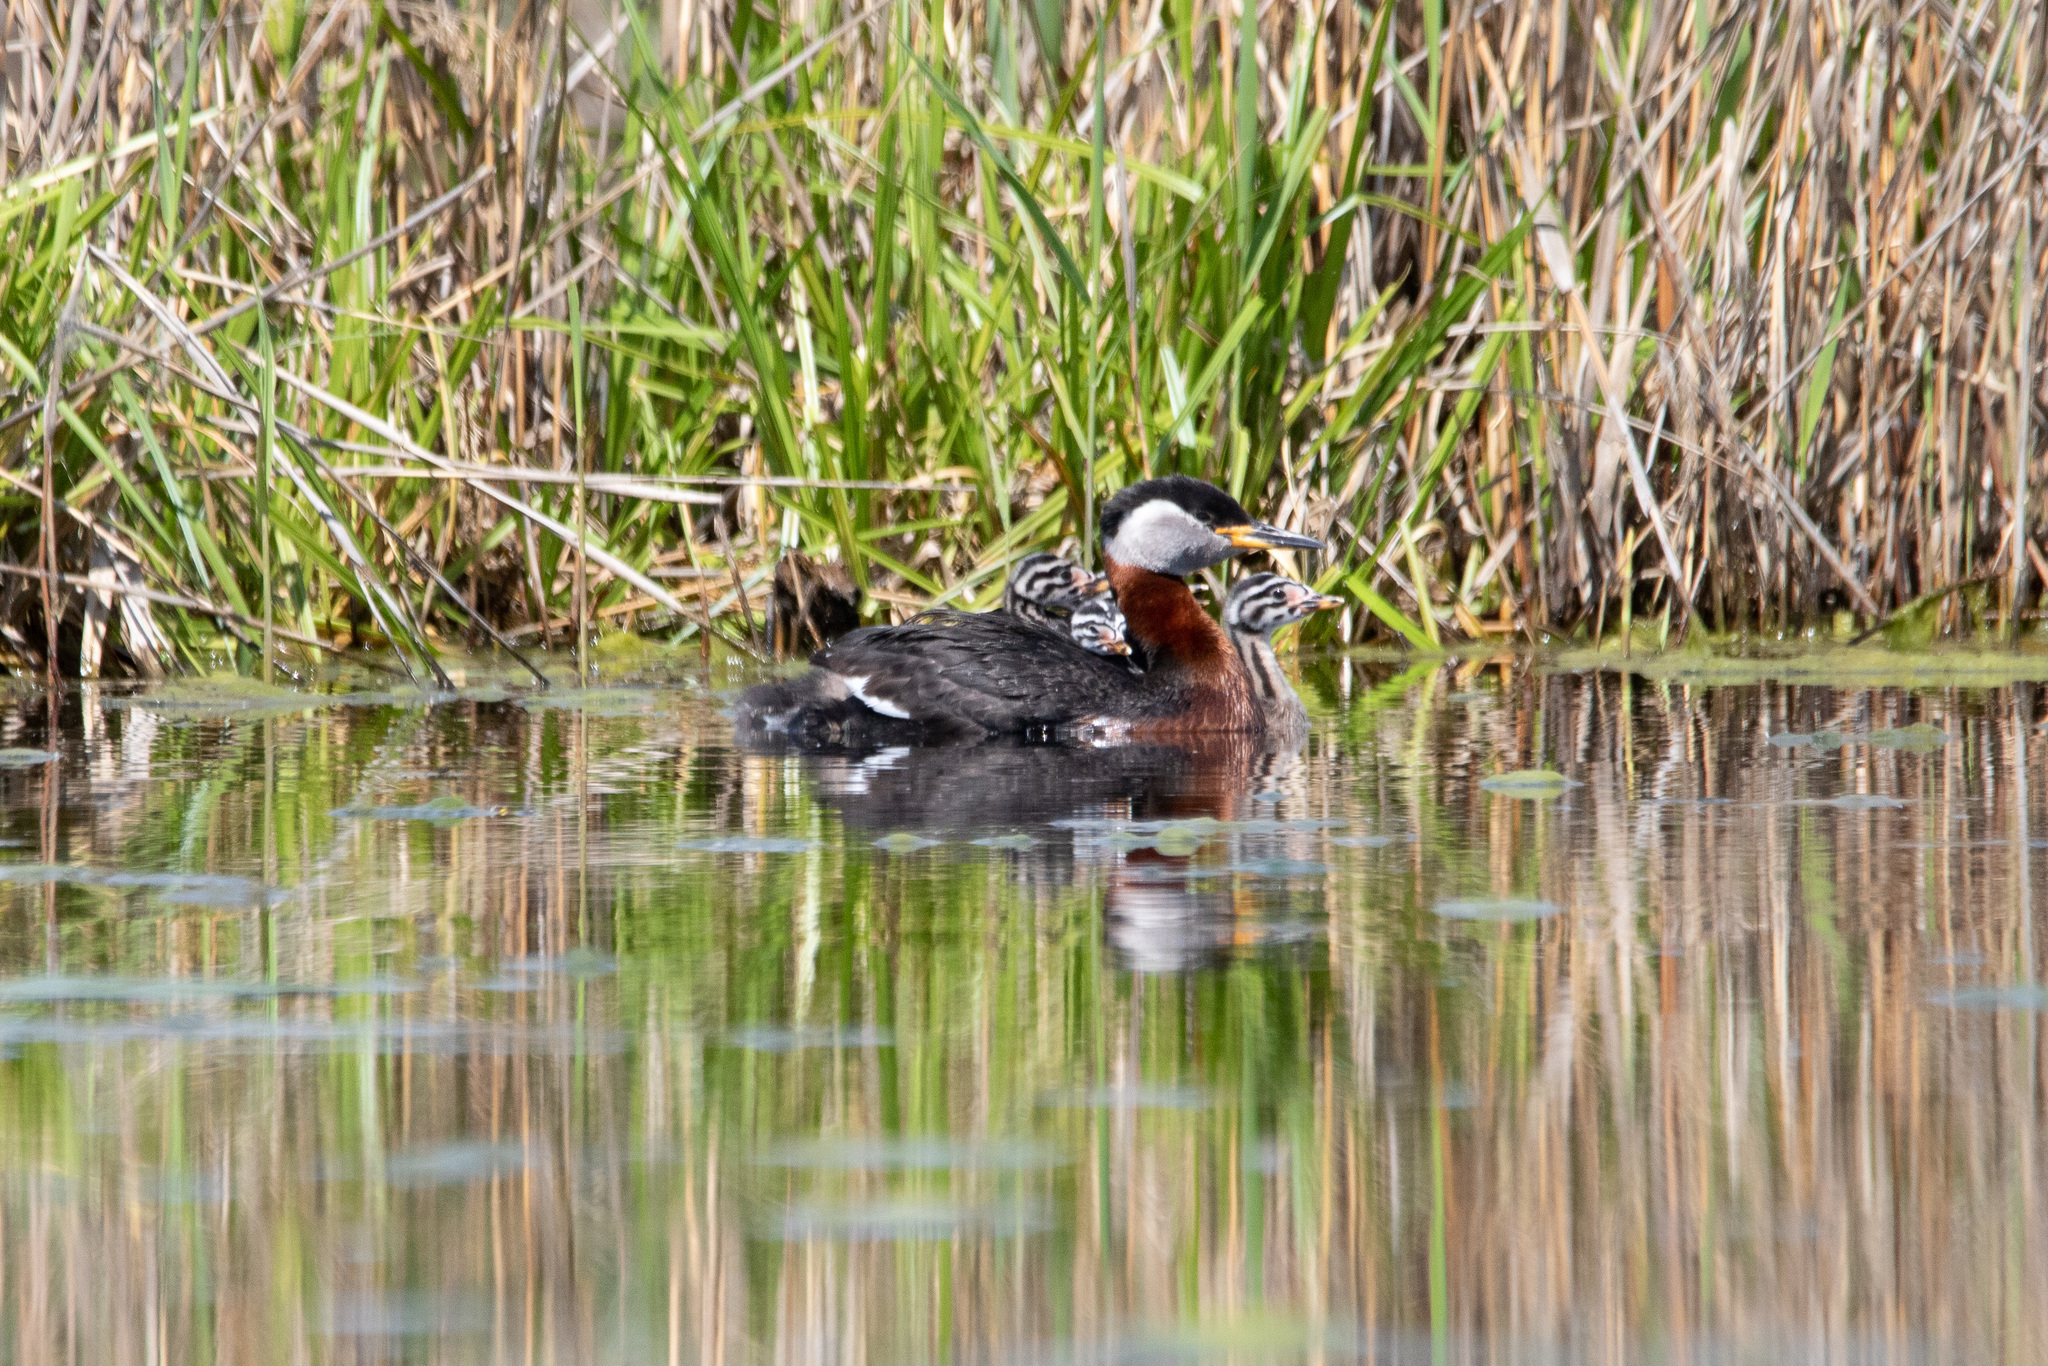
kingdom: Animalia
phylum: Chordata
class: Aves
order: Podicipediformes
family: Podicipedidae
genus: Podiceps
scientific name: Podiceps grisegena
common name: Red-necked grebe
